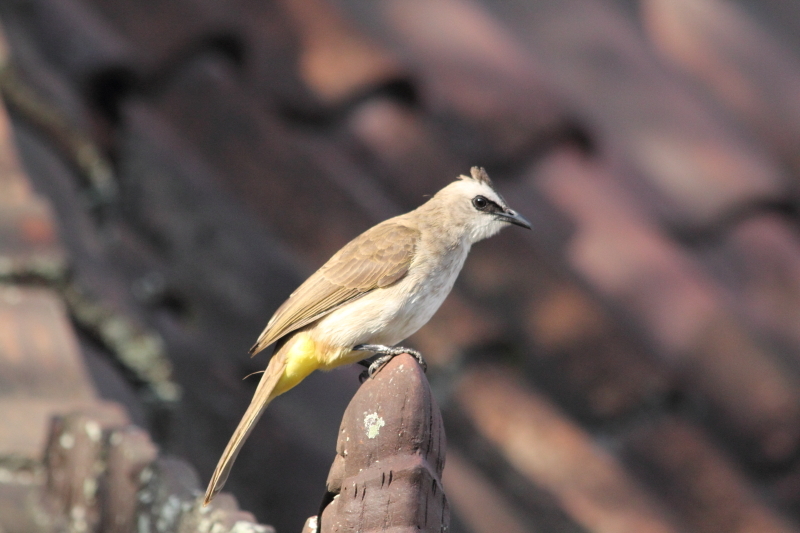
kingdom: Animalia
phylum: Chordata
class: Aves
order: Passeriformes
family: Pycnonotidae
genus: Pycnonotus
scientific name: Pycnonotus goiavier
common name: Yellow-vented bulbul
